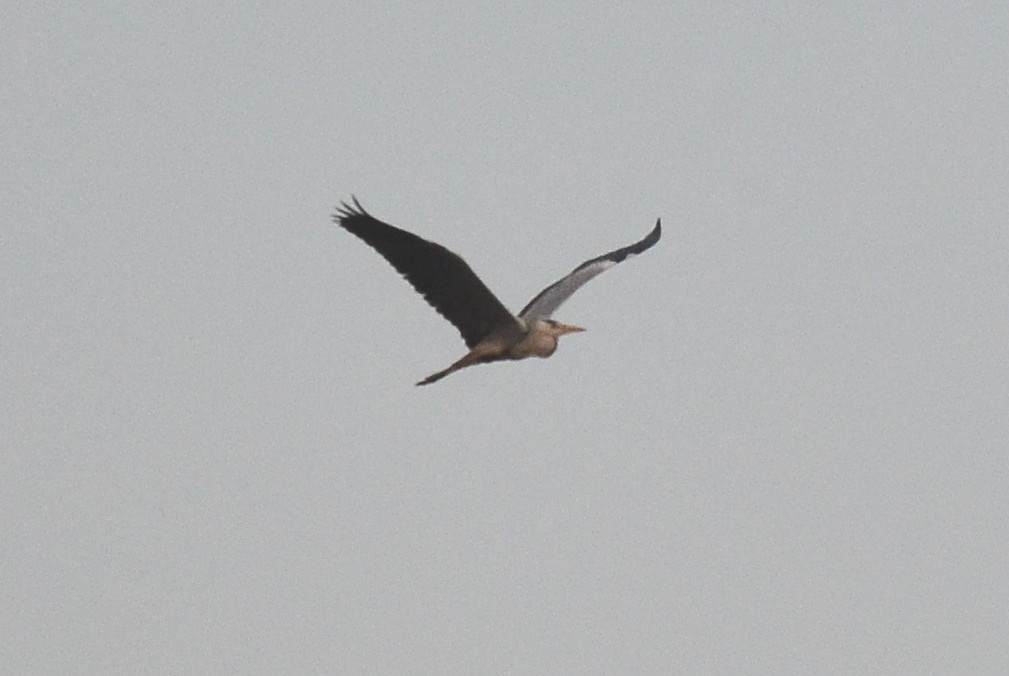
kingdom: Animalia
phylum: Chordata
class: Aves
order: Pelecaniformes
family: Ardeidae
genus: Ardea
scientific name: Ardea cinerea
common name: Grey heron
